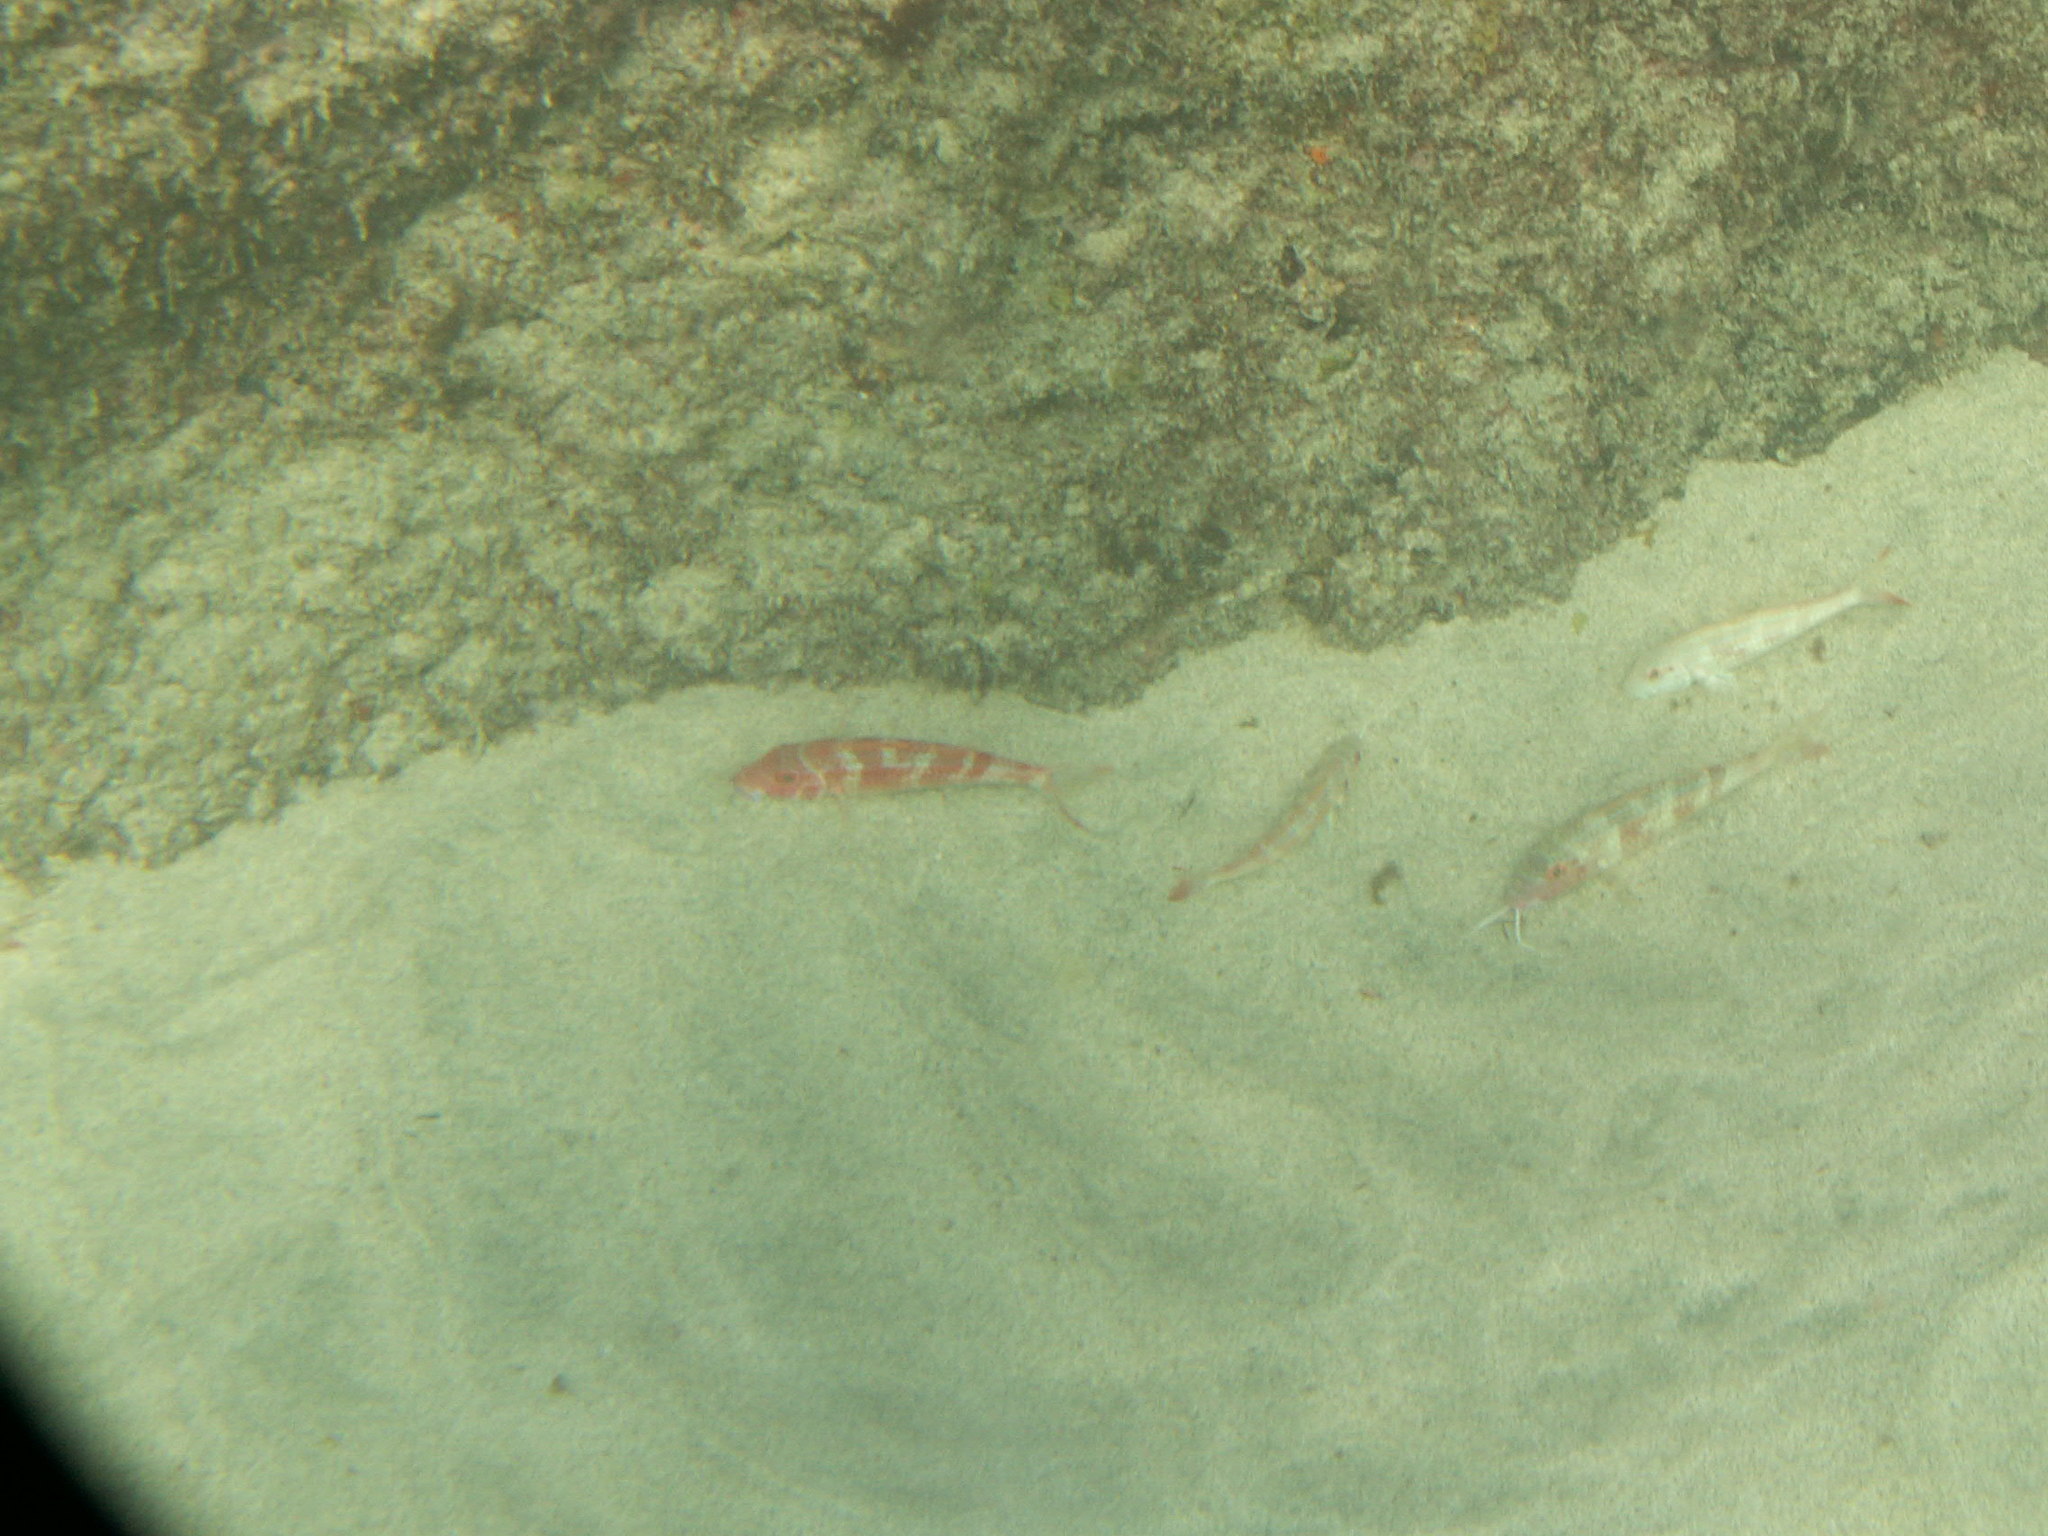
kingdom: Animalia
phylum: Chordata
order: Perciformes
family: Mullidae
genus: Pseudupeneus
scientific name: Pseudupeneus prayensis
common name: West african goatfish
